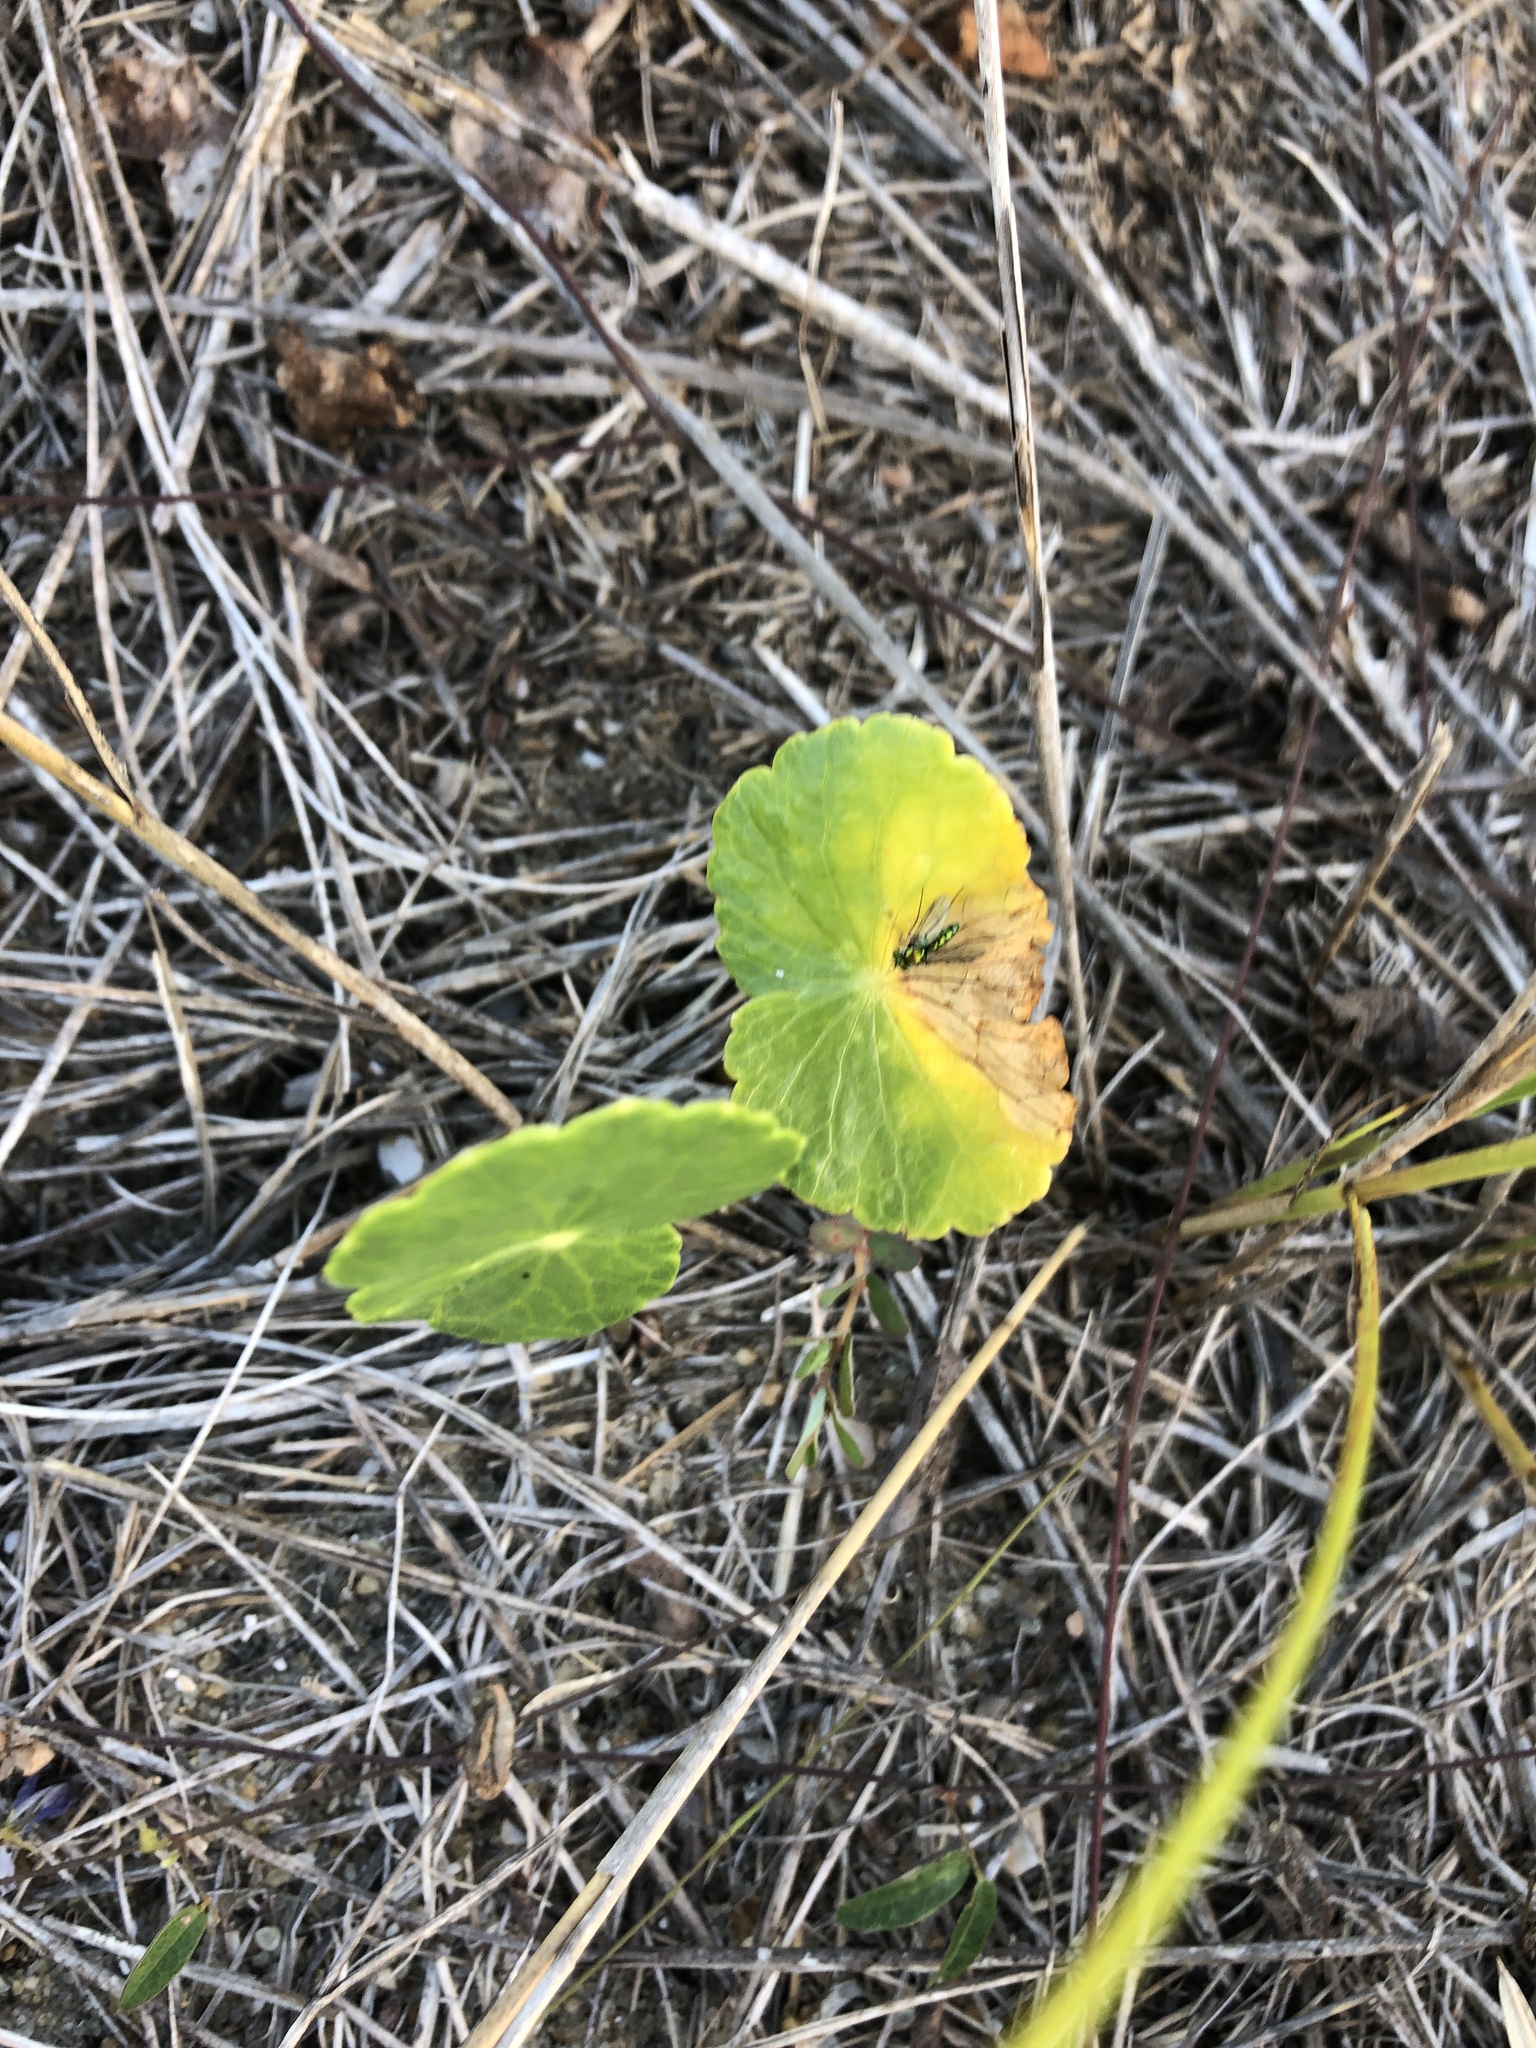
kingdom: Plantae
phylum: Tracheophyta
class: Magnoliopsida
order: Apiales
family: Araliaceae
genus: Hydrocotyle
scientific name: Hydrocotyle bonariensis
